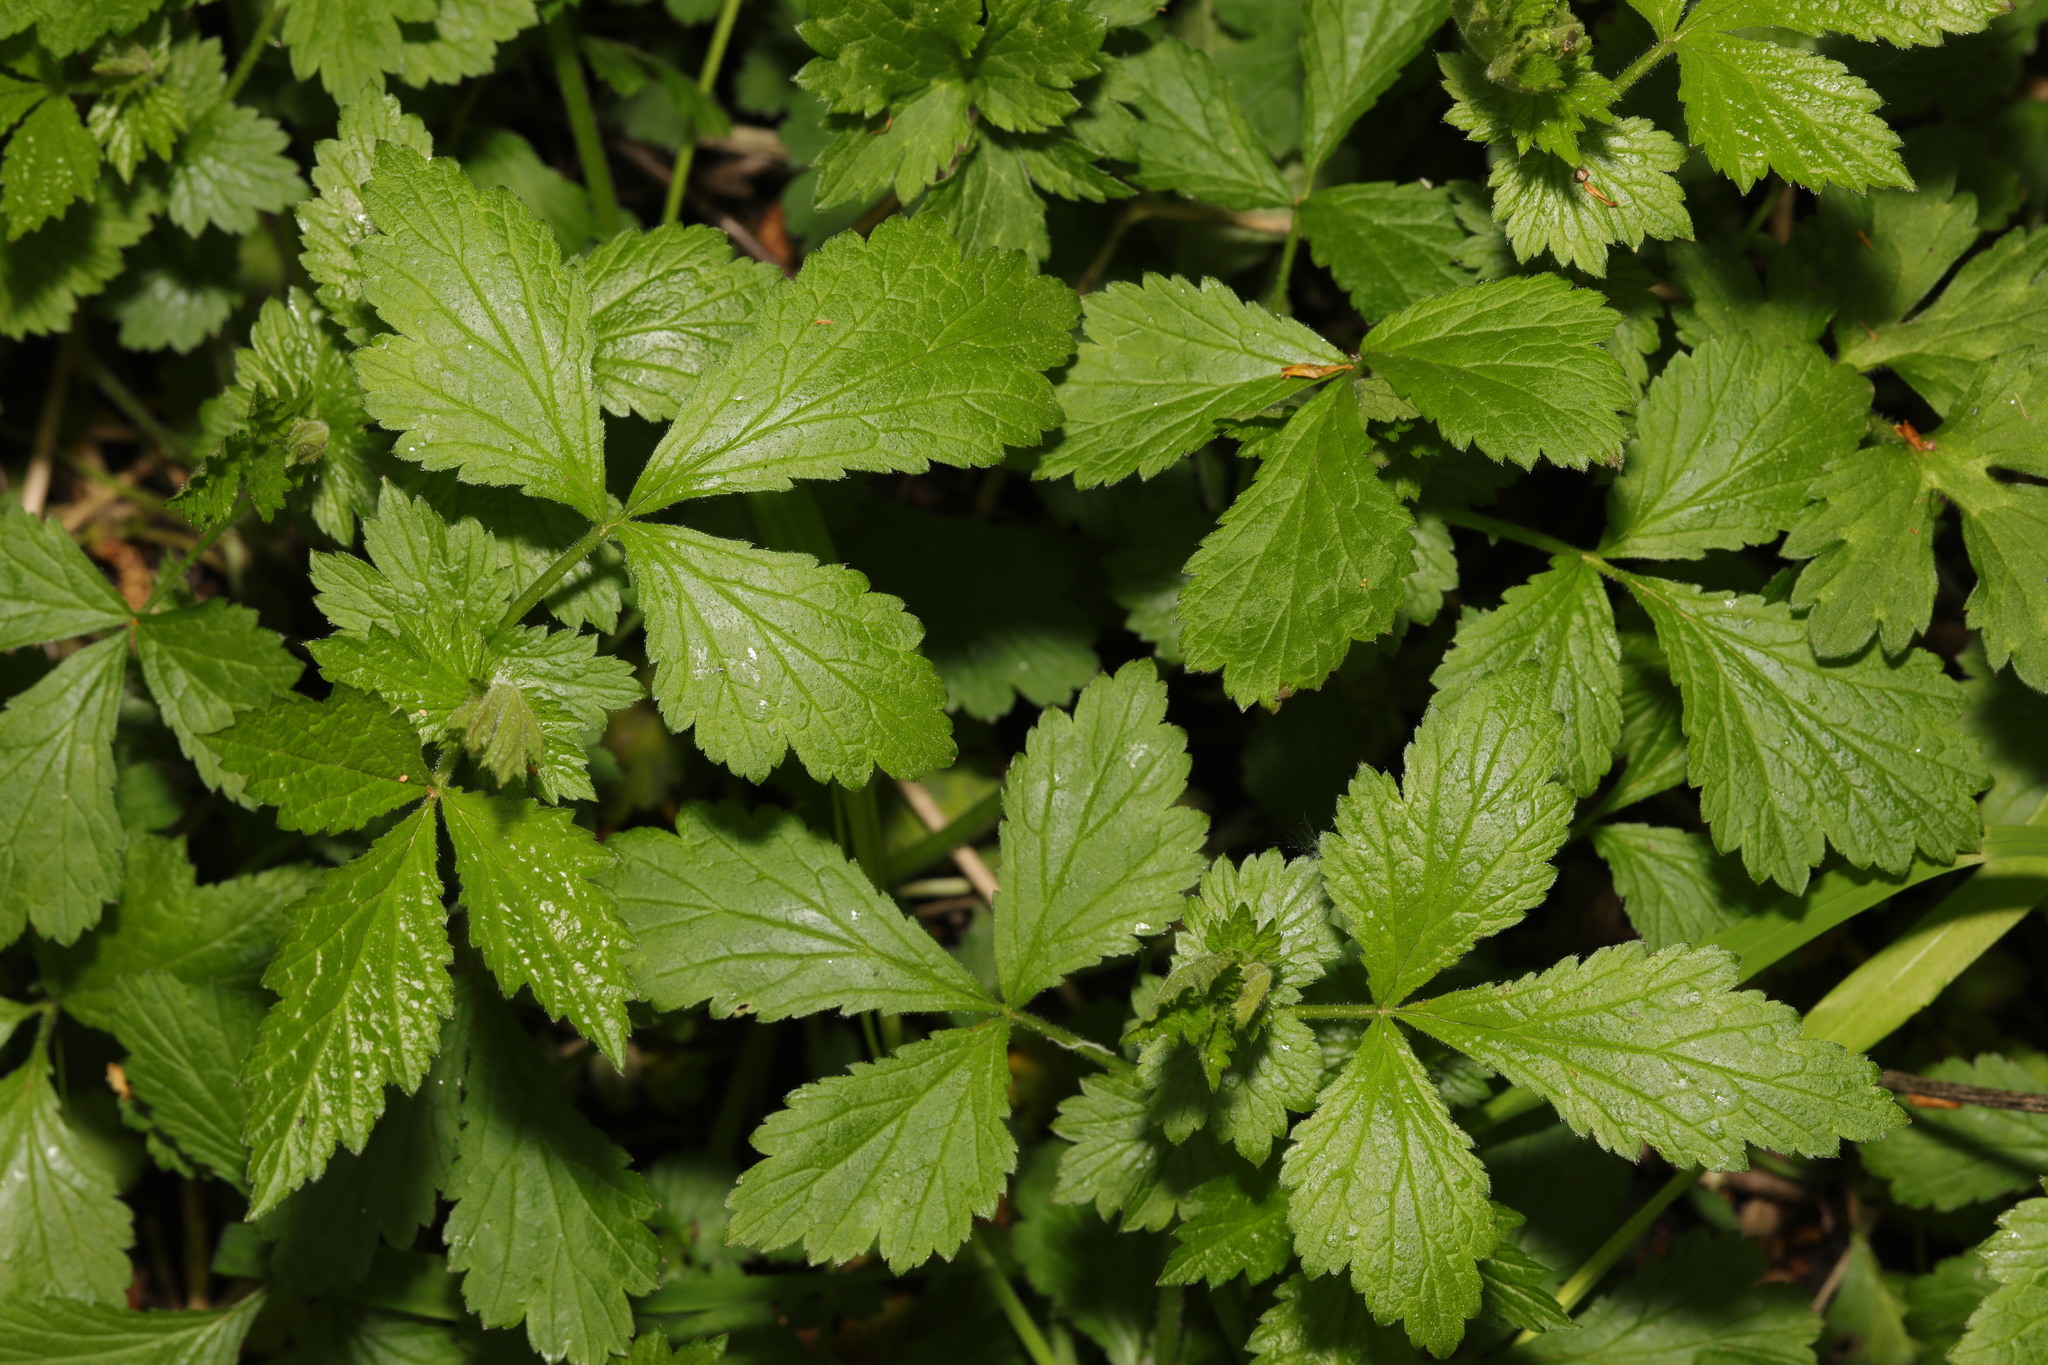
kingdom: Plantae
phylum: Tracheophyta
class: Magnoliopsida
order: Rosales
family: Rosaceae
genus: Geum
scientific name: Geum urbanum
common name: Wood avens
